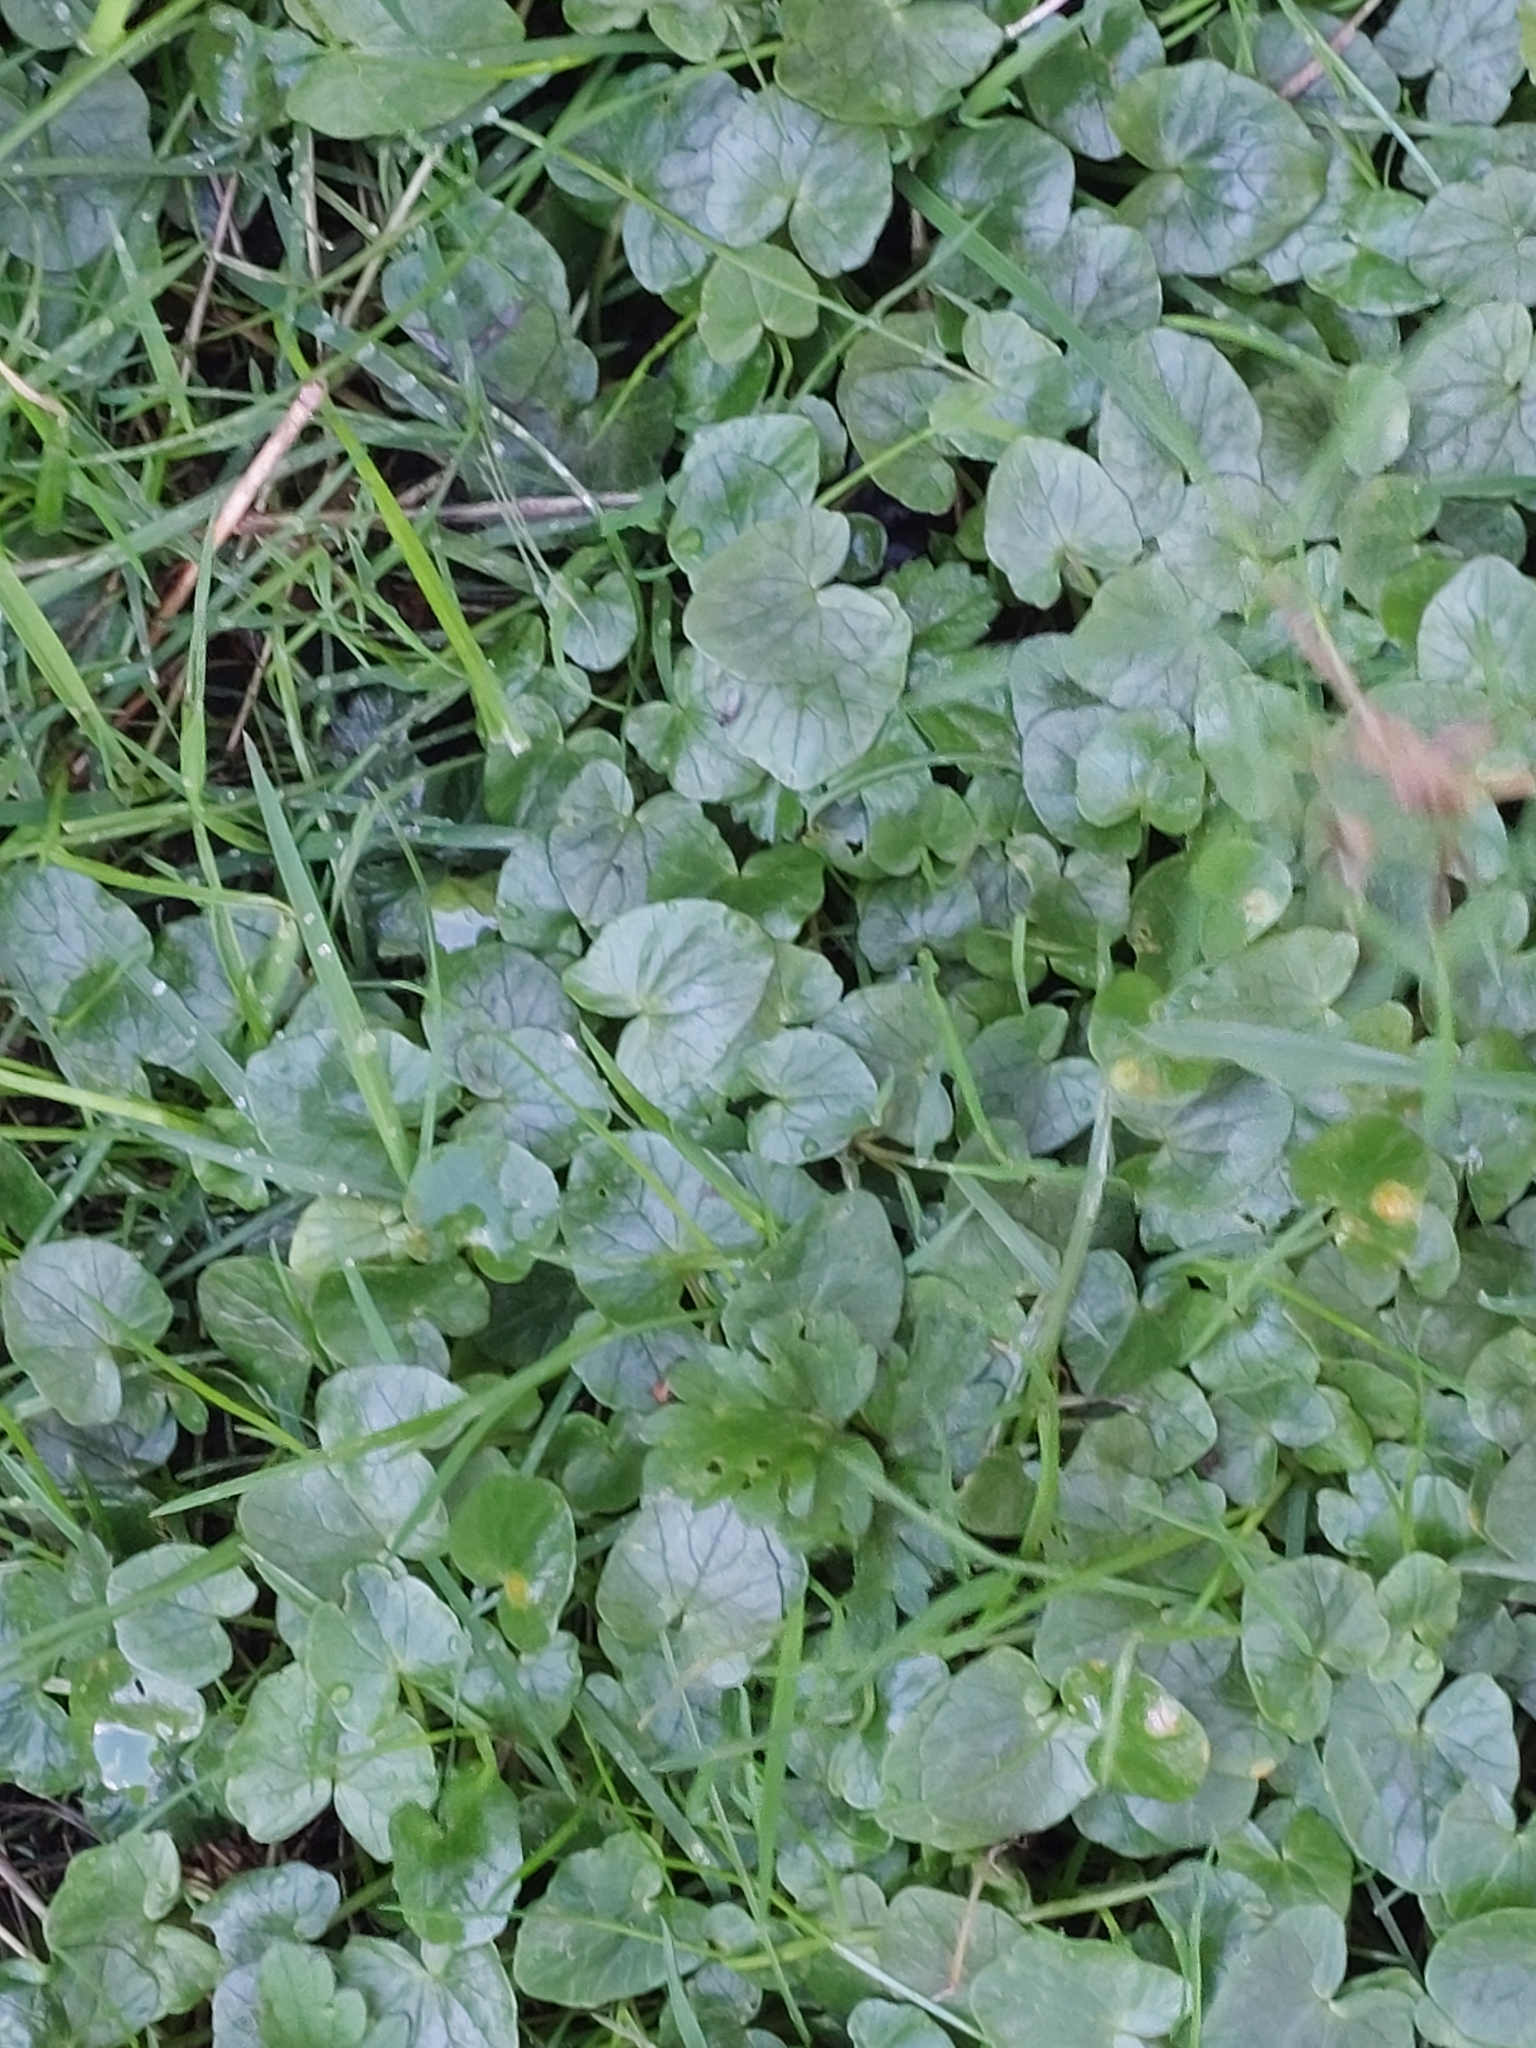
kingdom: Plantae
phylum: Tracheophyta
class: Magnoliopsida
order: Ranunculales
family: Ranunculaceae
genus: Ficaria
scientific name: Ficaria verna
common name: Lesser celandine
